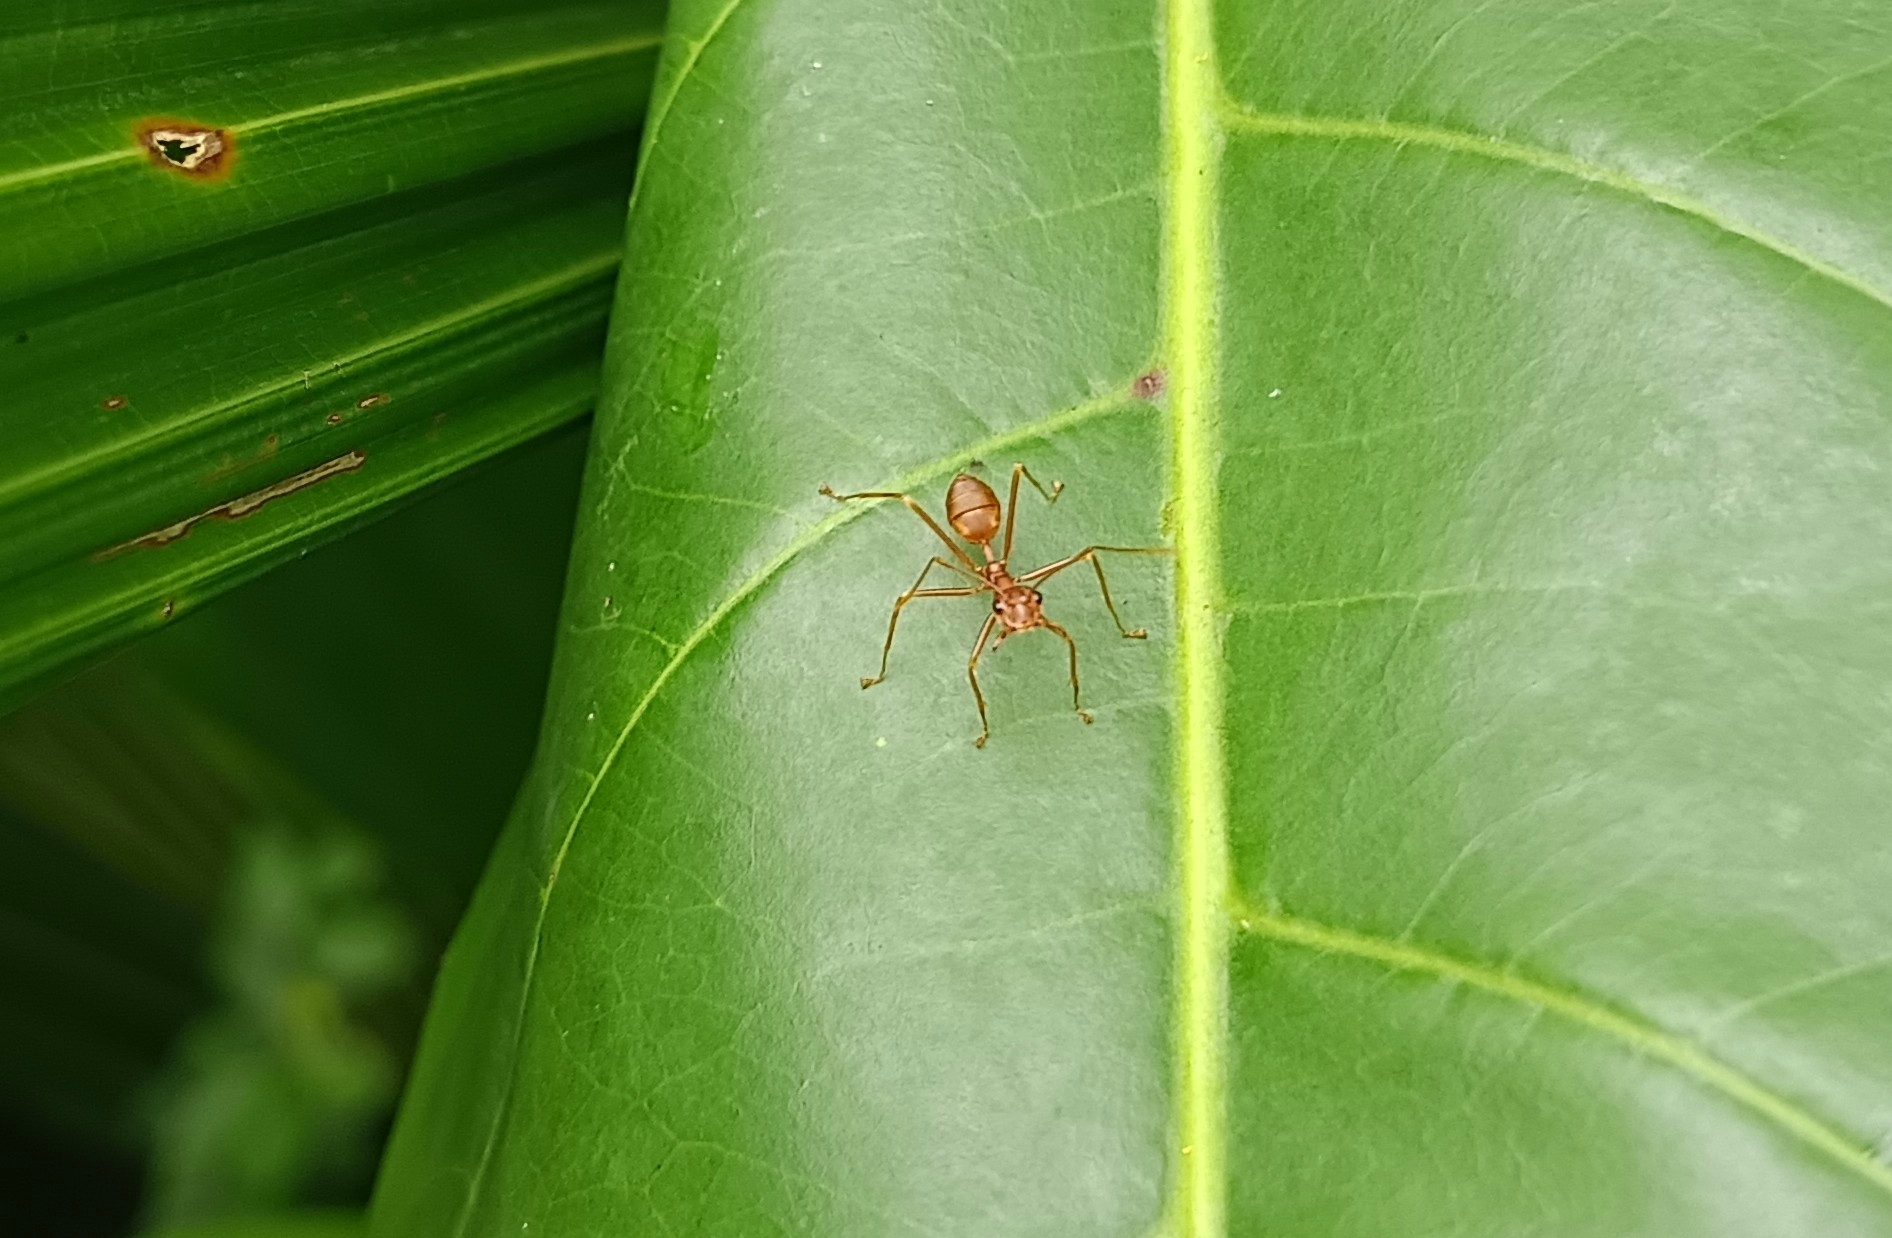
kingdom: Animalia
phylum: Arthropoda
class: Insecta
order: Hymenoptera
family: Formicidae
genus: Oecophylla
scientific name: Oecophylla smaragdina
